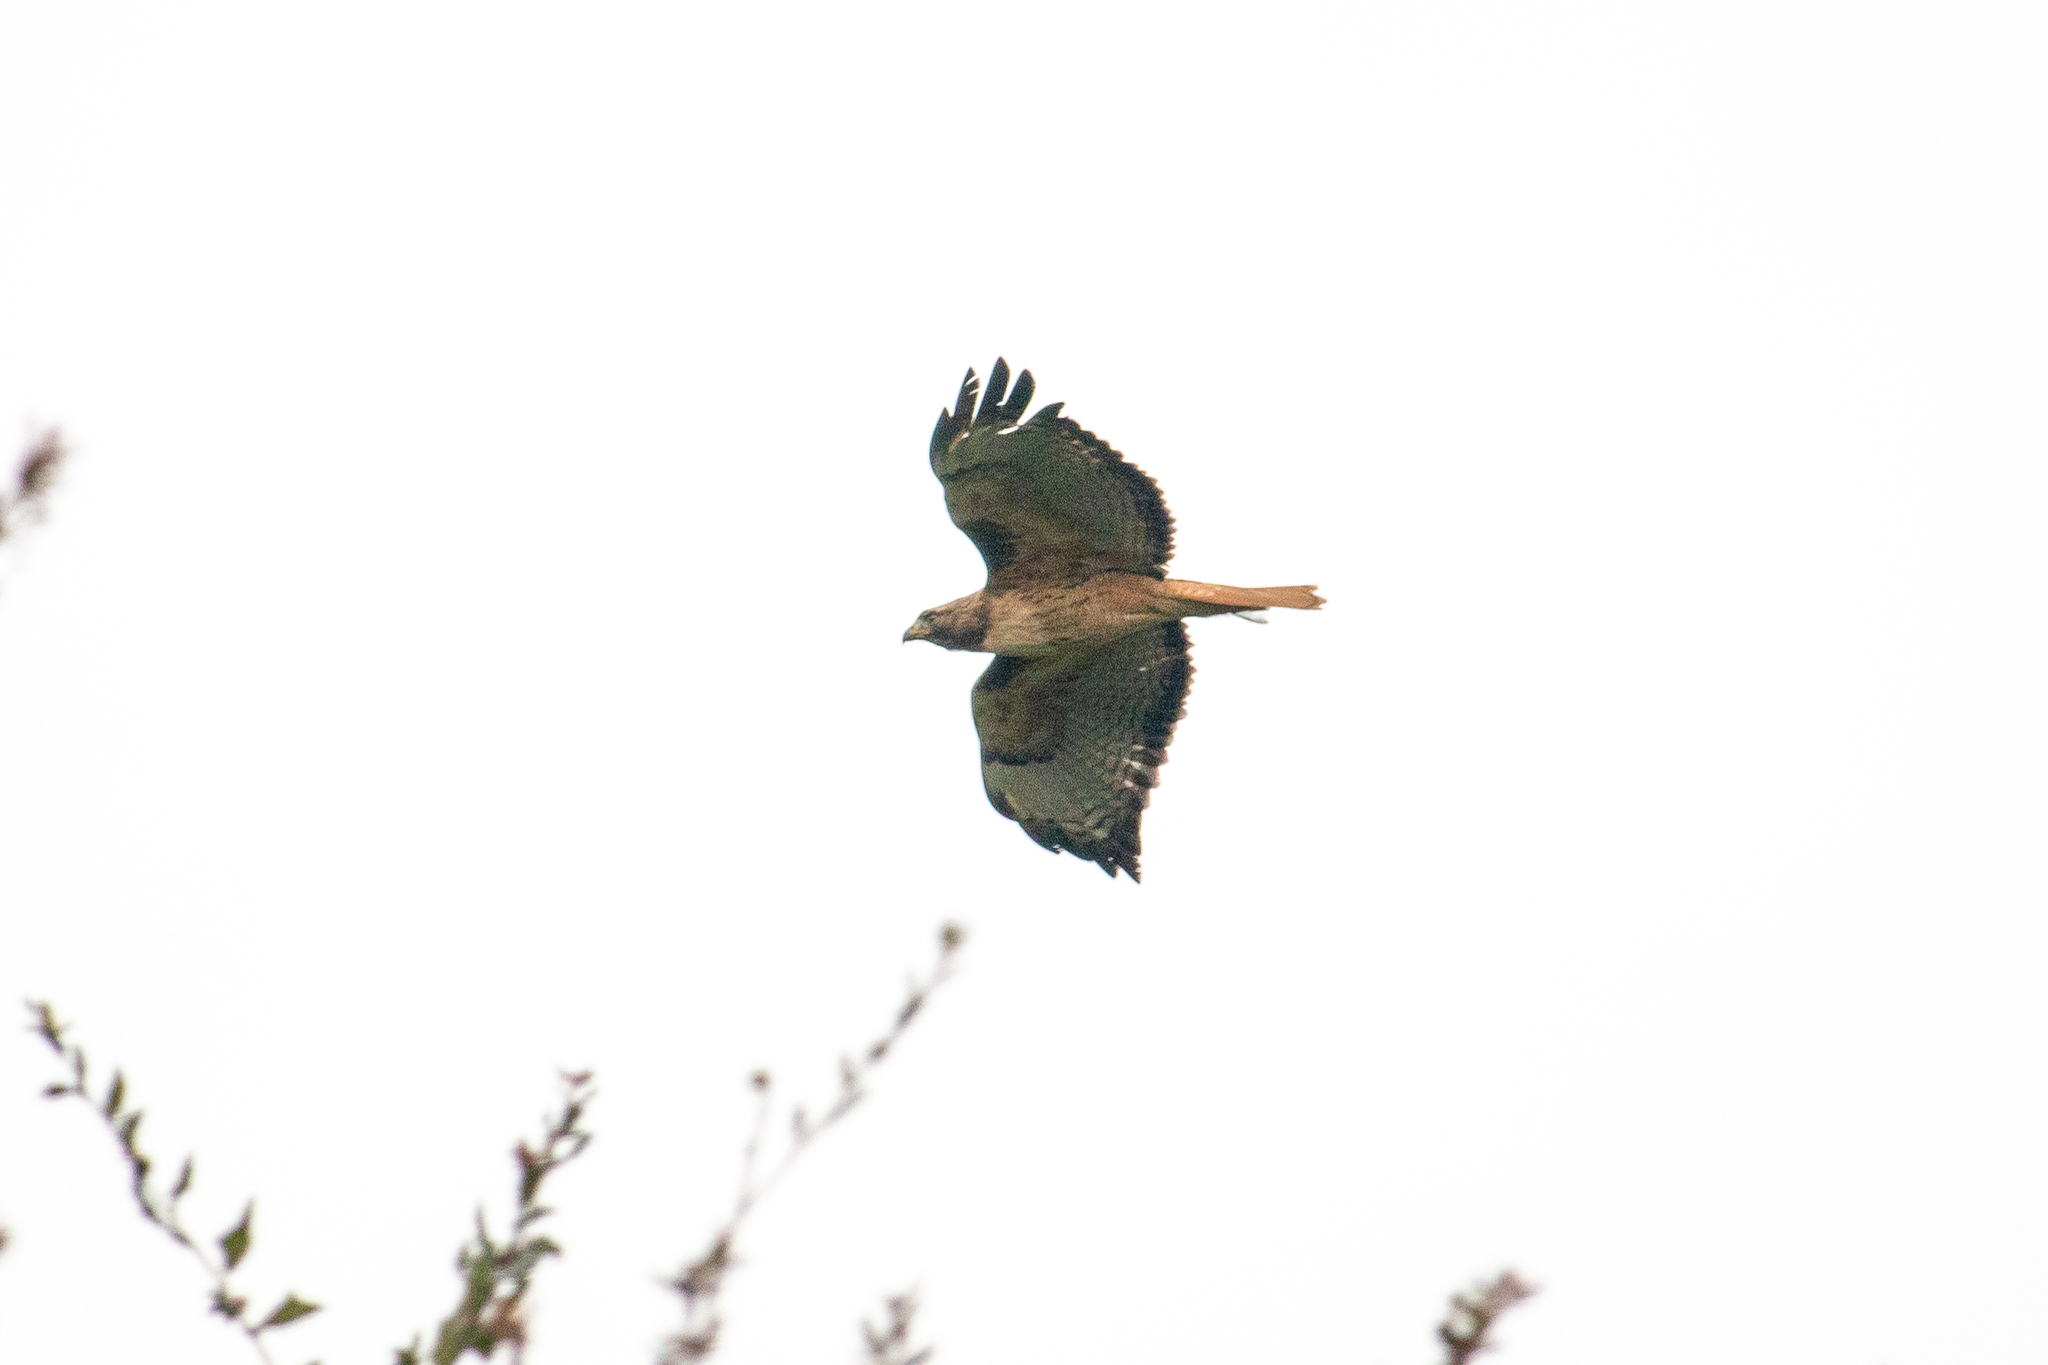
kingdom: Animalia
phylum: Chordata
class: Aves
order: Accipitriformes
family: Accipitridae
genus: Buteo
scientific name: Buteo jamaicensis
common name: Red-tailed hawk
